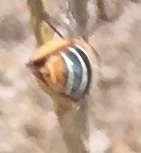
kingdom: Animalia
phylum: Arthropoda
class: Insecta
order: Hymenoptera
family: Apidae
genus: Centris
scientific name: Centris niveofasciata
